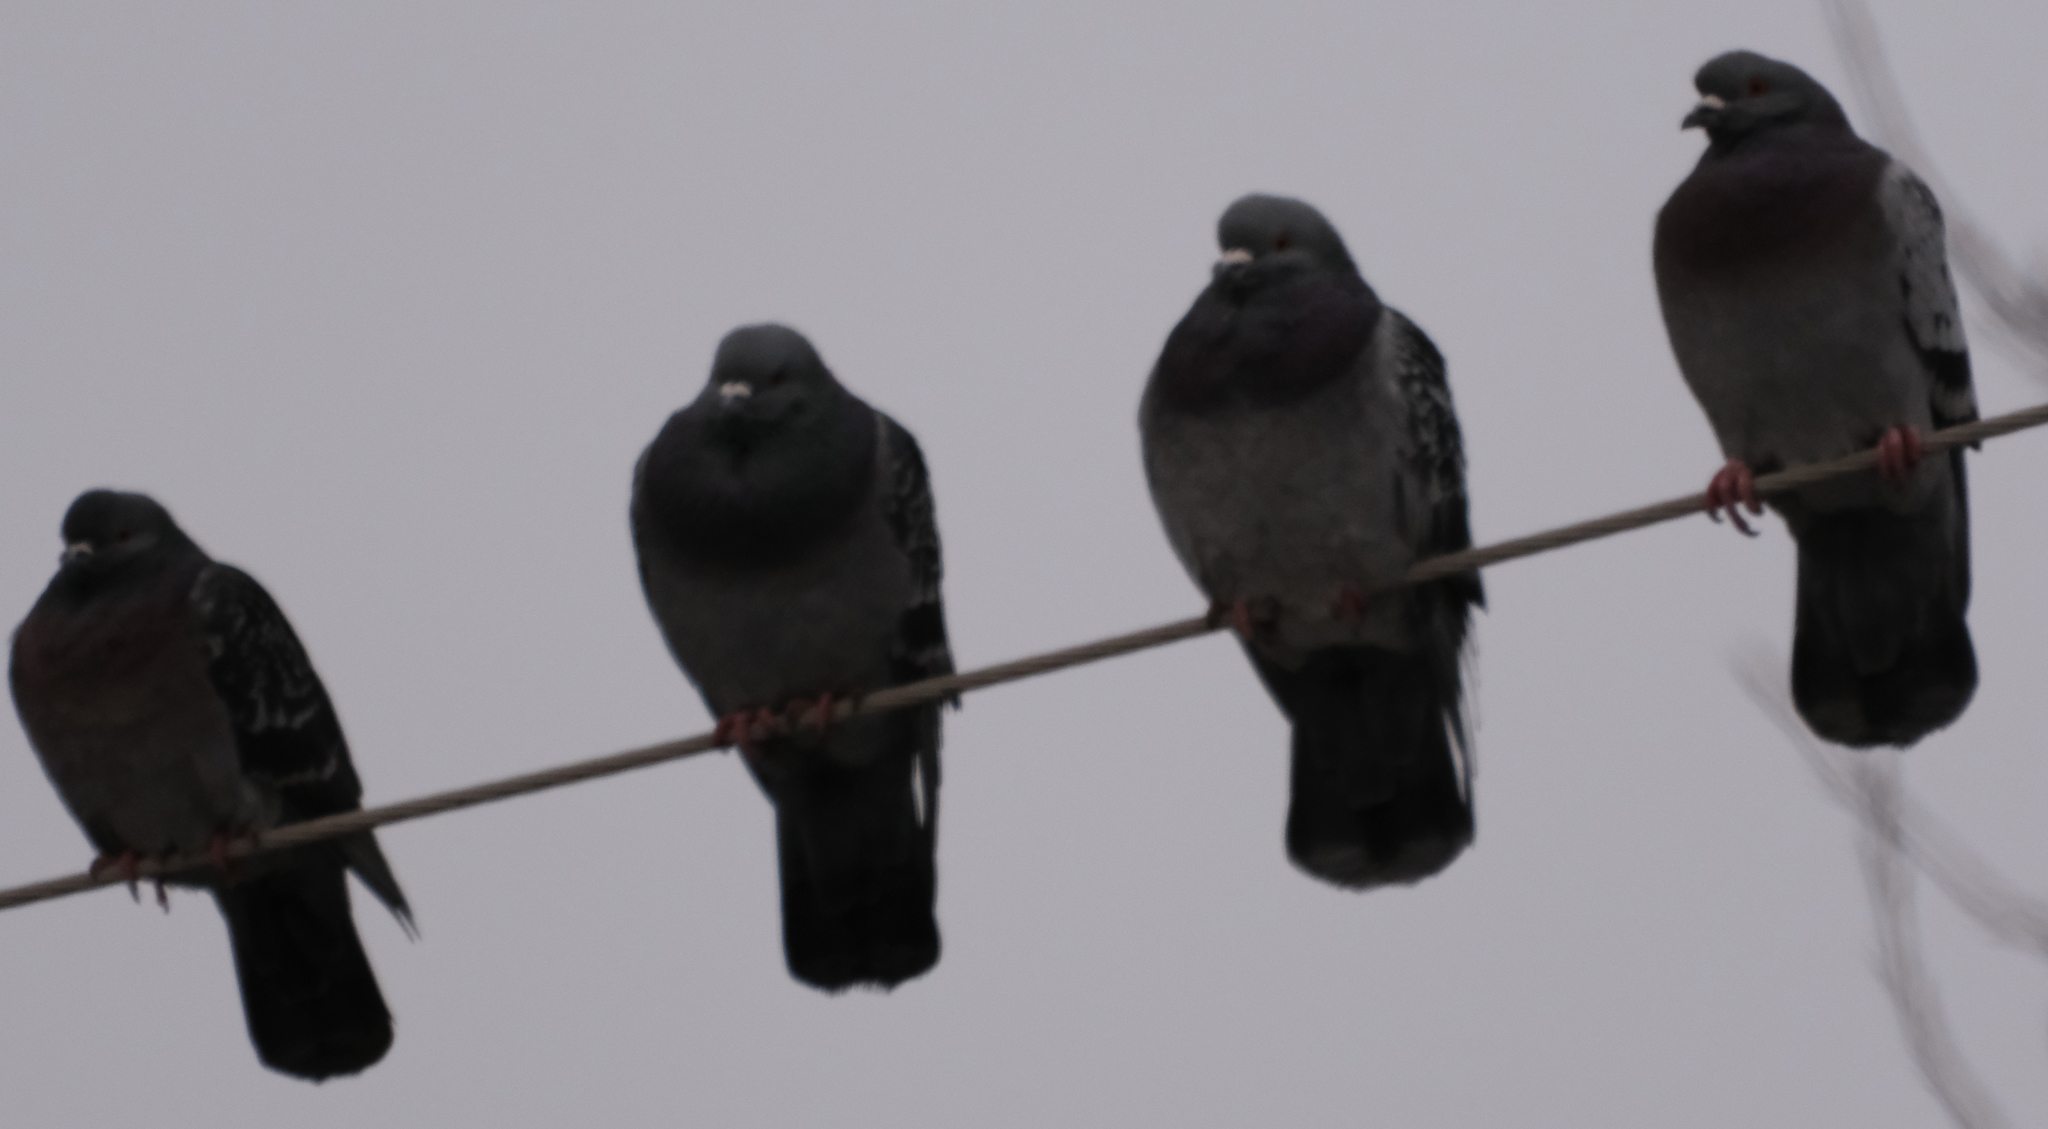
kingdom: Animalia
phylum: Chordata
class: Aves
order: Columbiformes
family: Columbidae
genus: Columba
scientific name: Columba livia
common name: Rock pigeon
